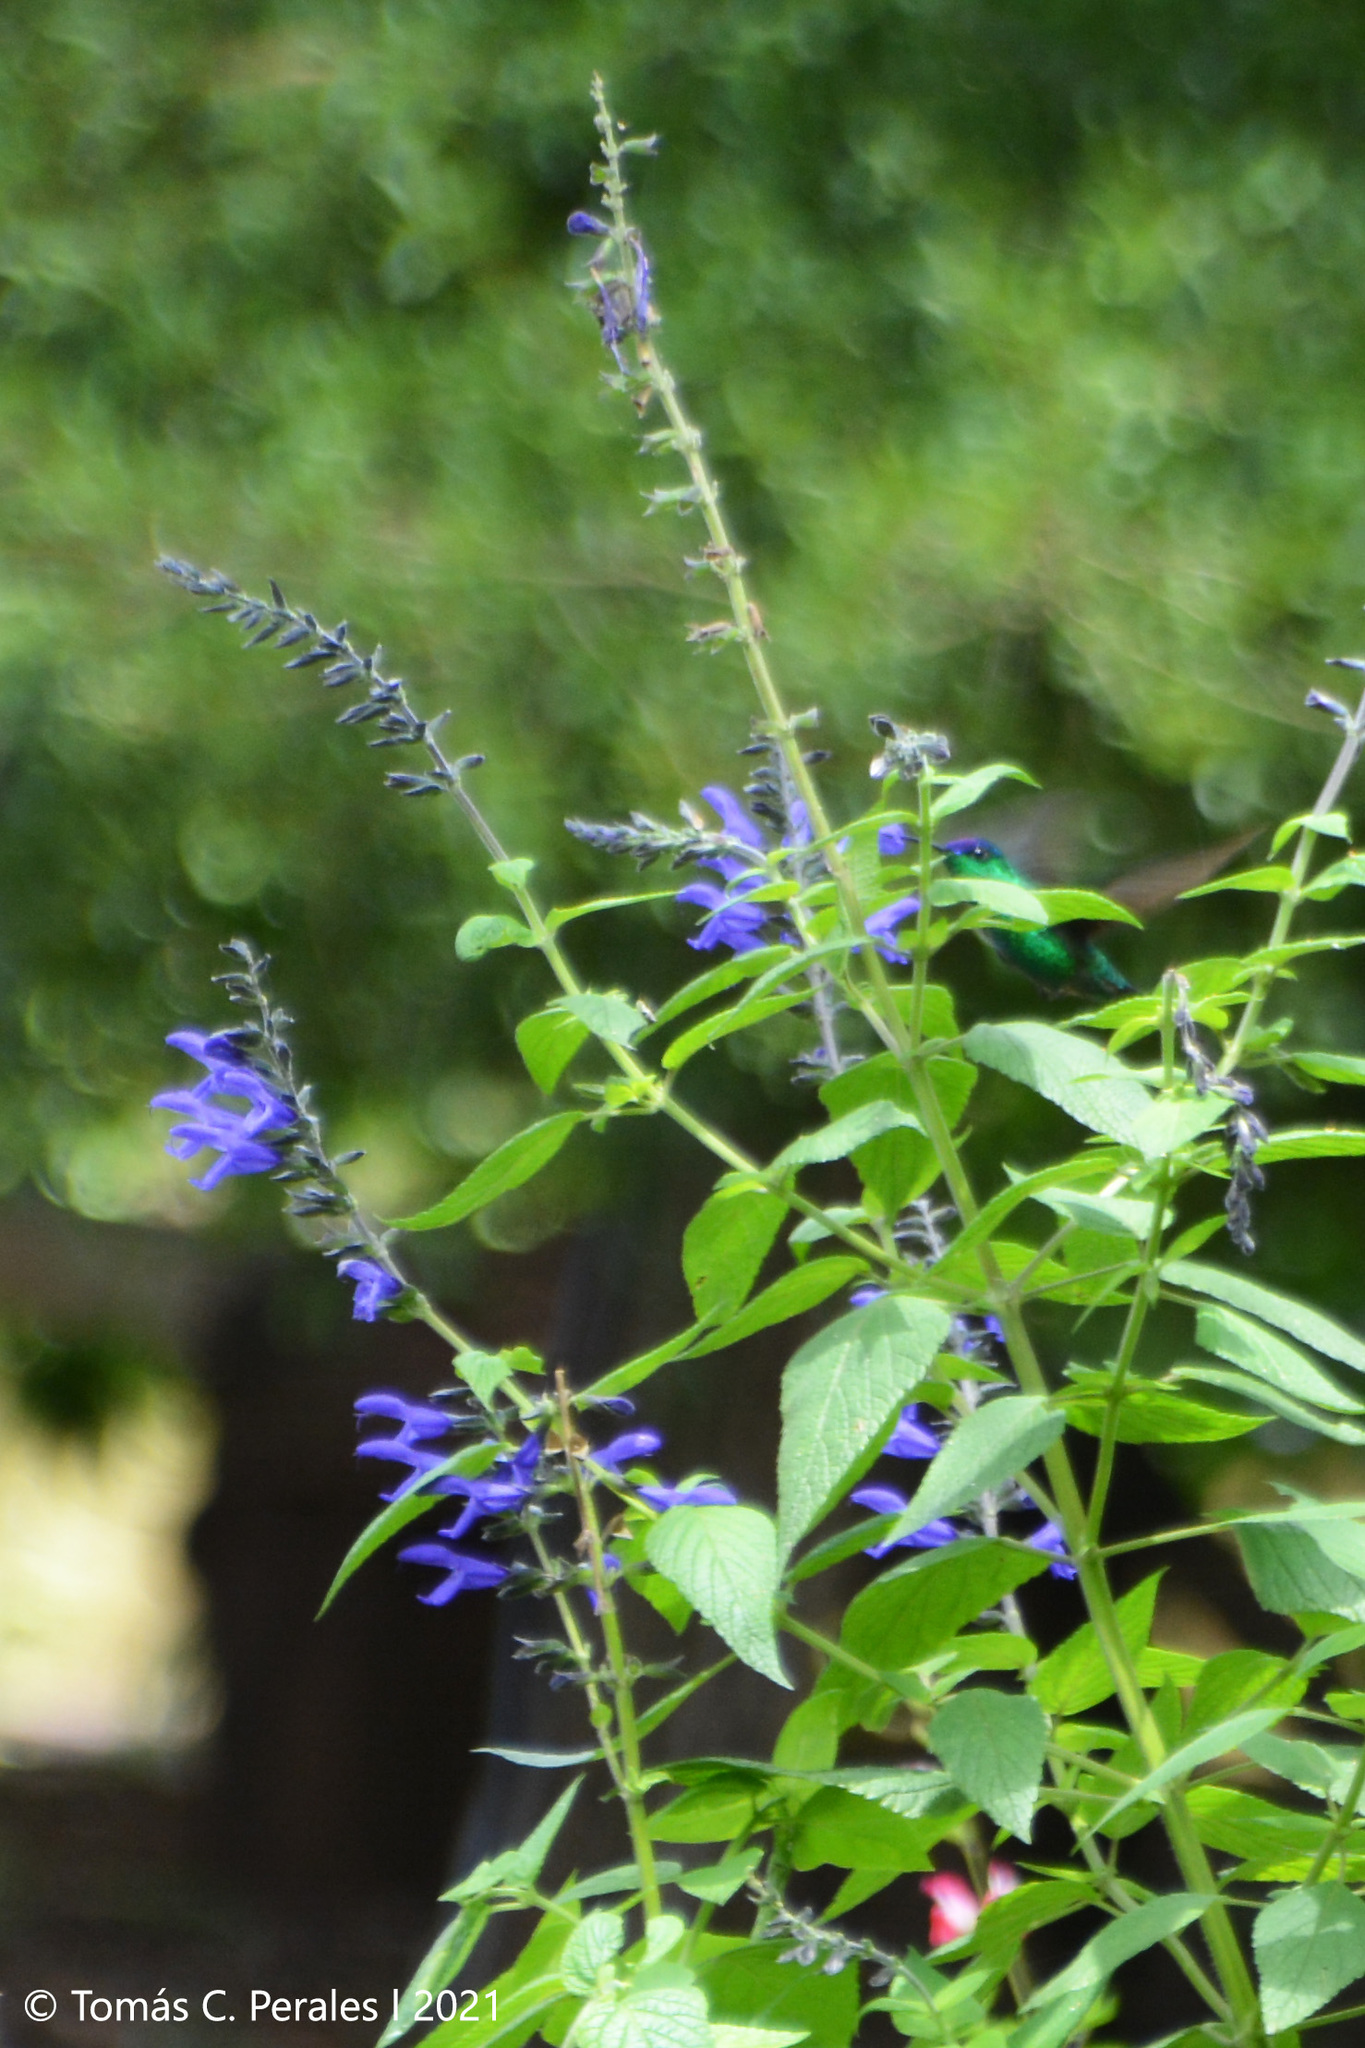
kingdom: Plantae
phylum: Tracheophyta
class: Magnoliopsida
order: Lamiales
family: Lamiaceae
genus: Salvia
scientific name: Salvia guaranitica
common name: Anise-scented sage
